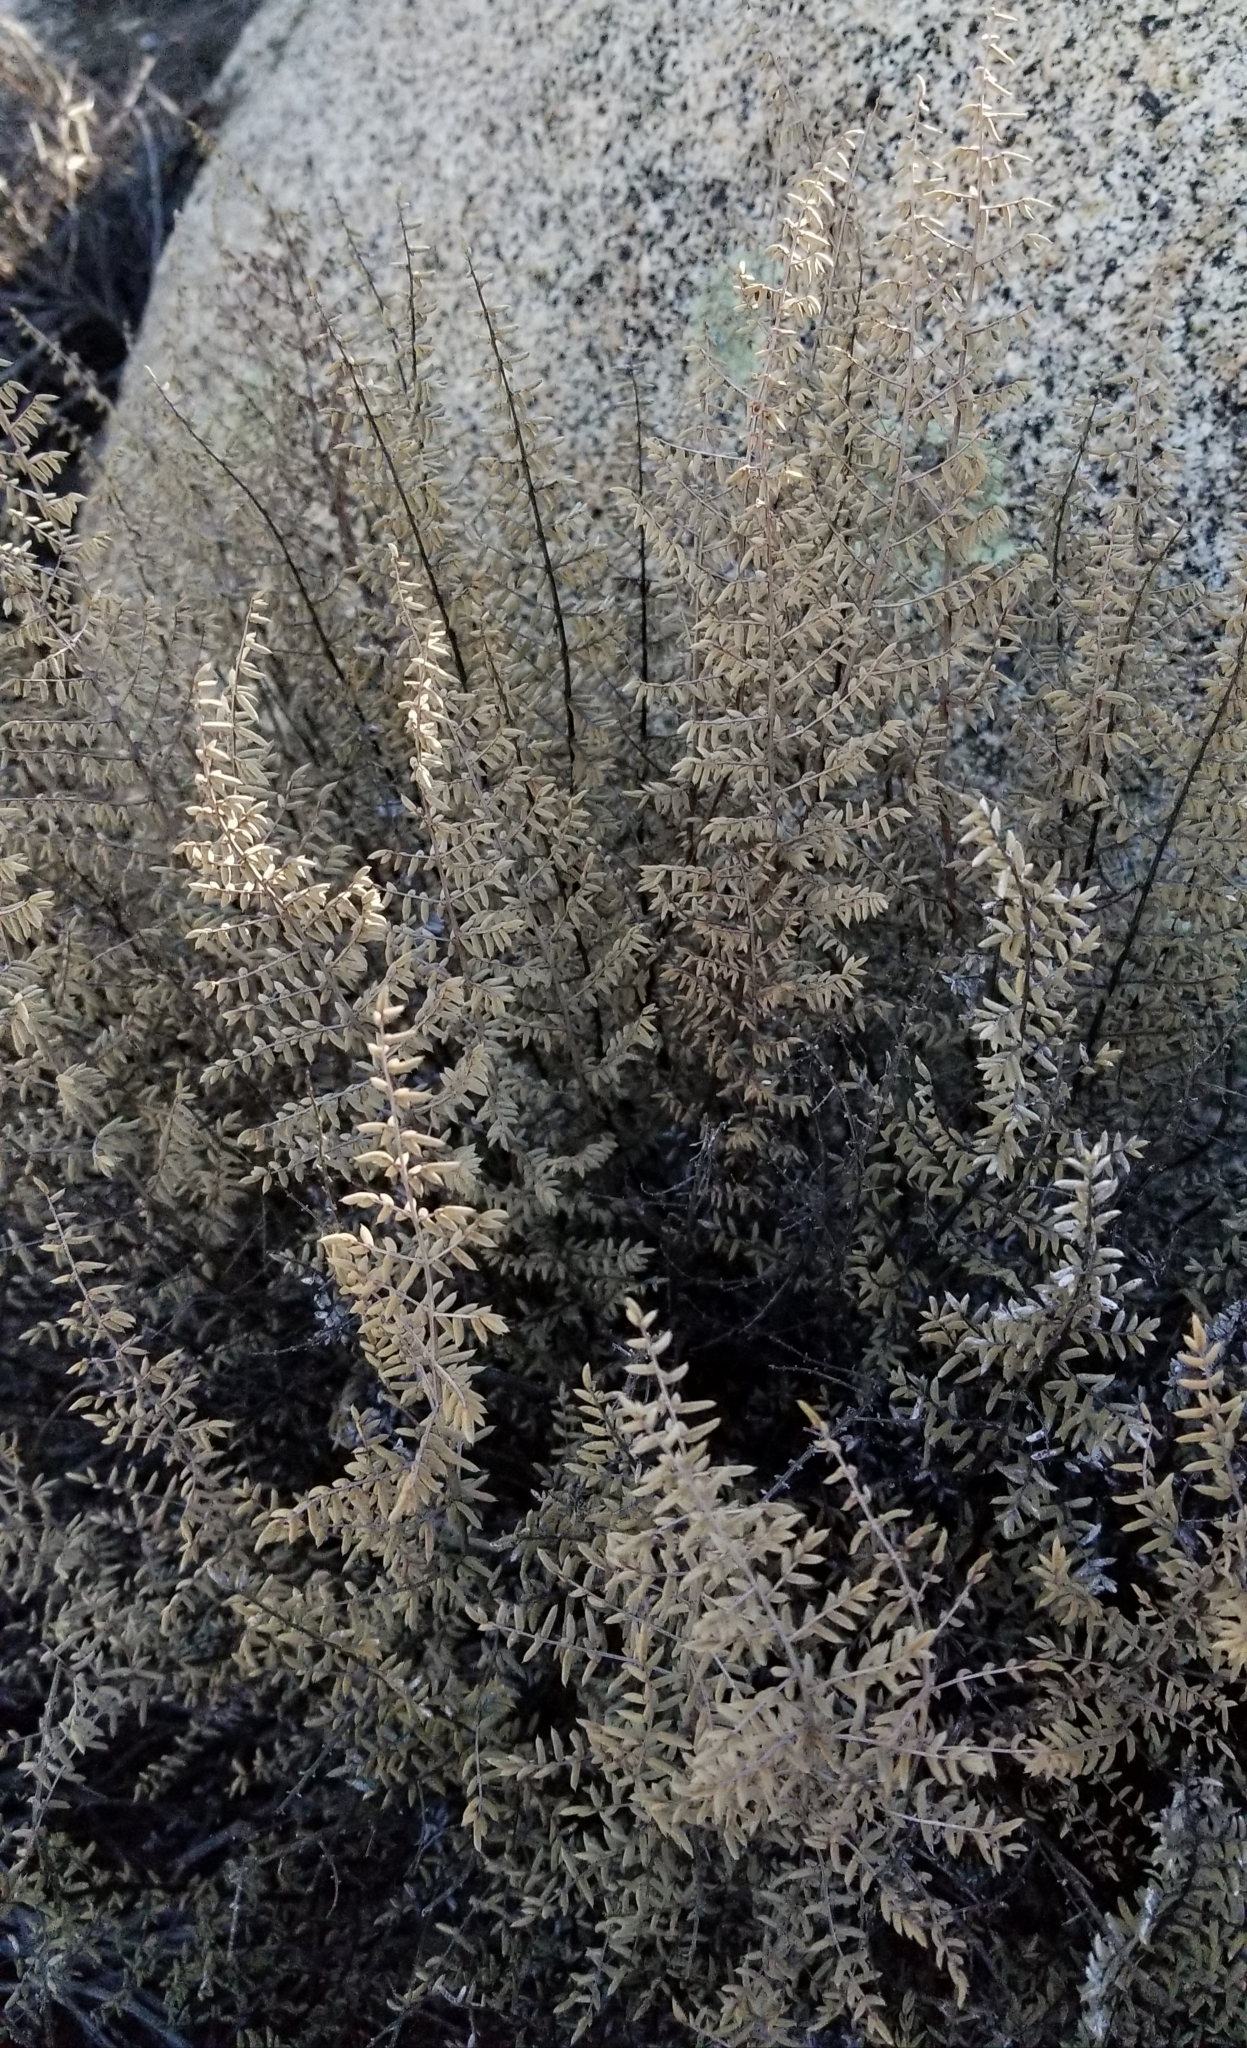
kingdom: Plantae
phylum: Tracheophyta
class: Polypodiopsida
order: Polypodiales
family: Pteridaceae
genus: Pellaea
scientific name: Pellaea mucronata
